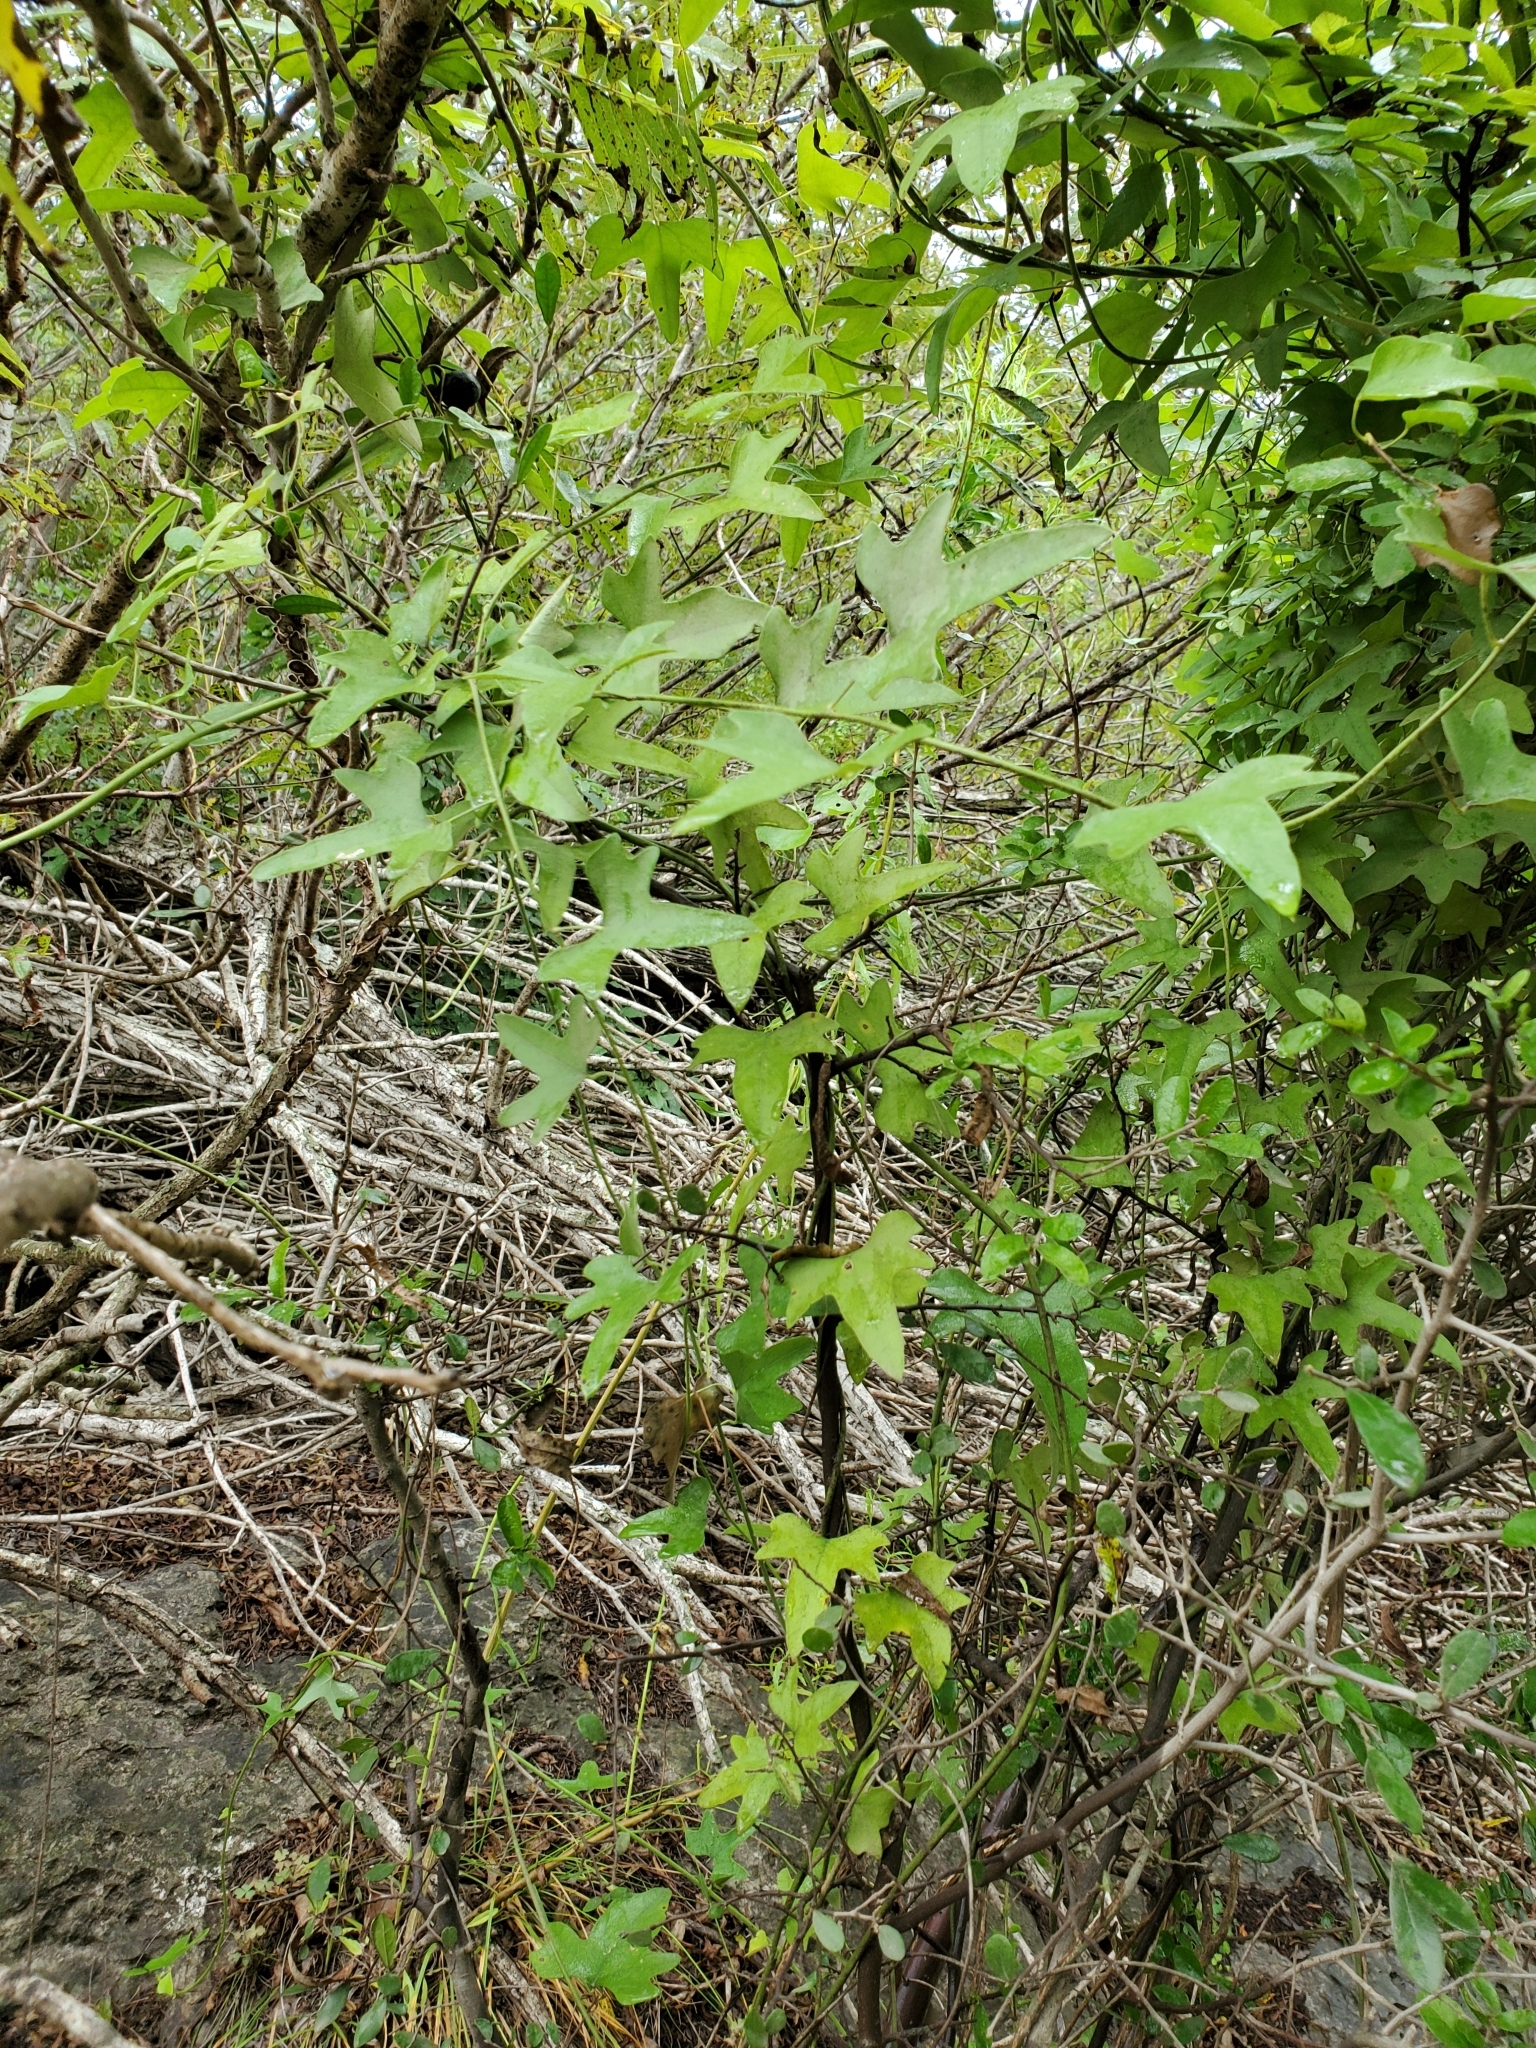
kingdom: Plantae
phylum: Tracheophyta
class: Magnoliopsida
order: Ranunculales
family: Menispermaceae
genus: Cocculus
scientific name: Cocculus carolinus
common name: Carolina moonseed
